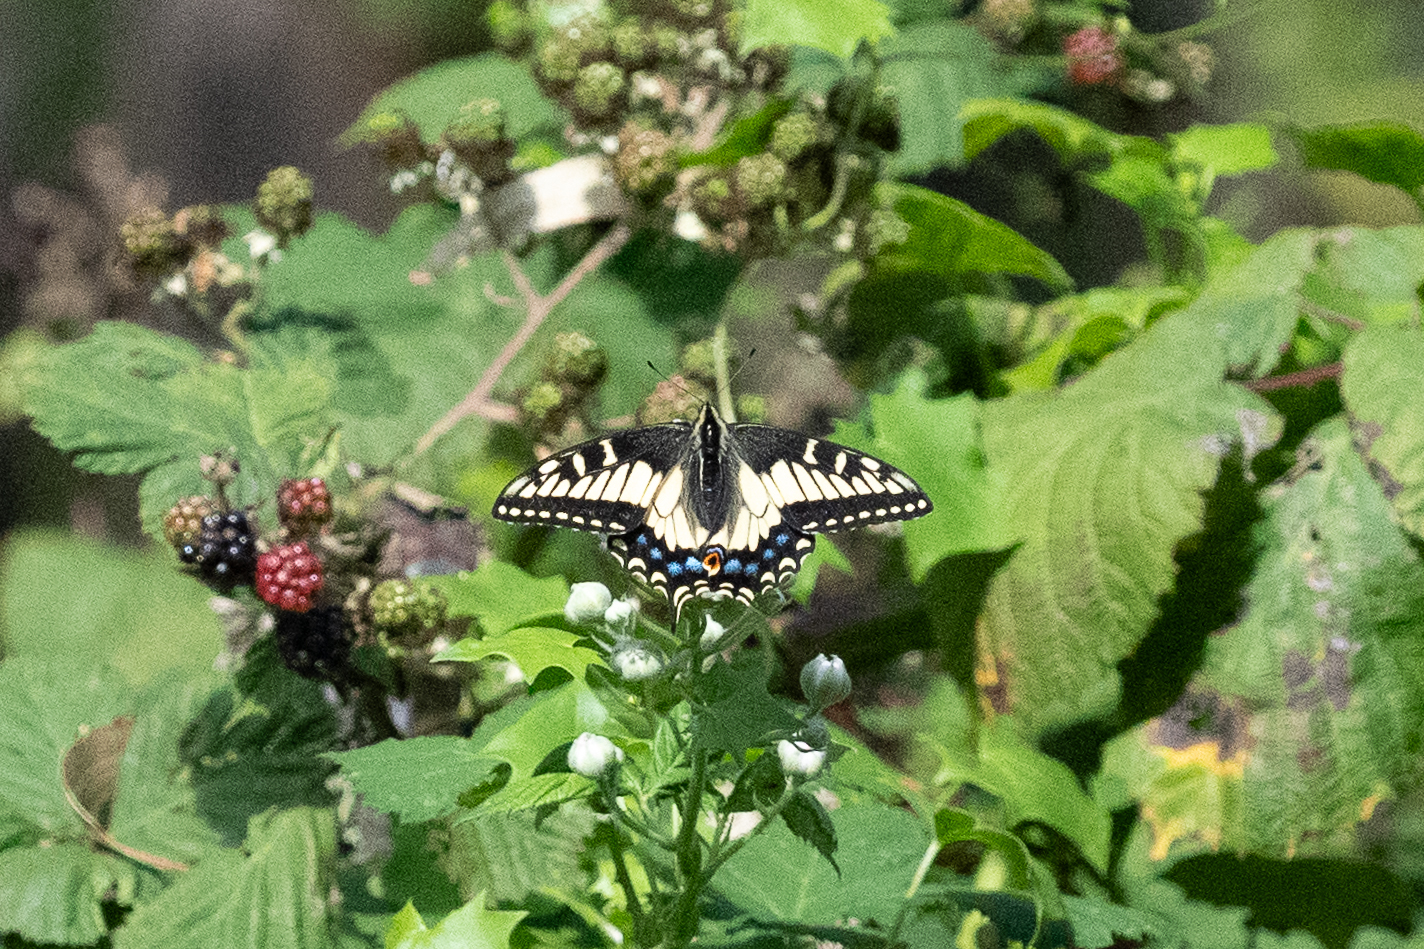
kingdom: Animalia
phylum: Arthropoda
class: Insecta
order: Lepidoptera
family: Papilionidae
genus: Papilio
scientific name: Papilio zelicaon
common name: Anise swallowtail
